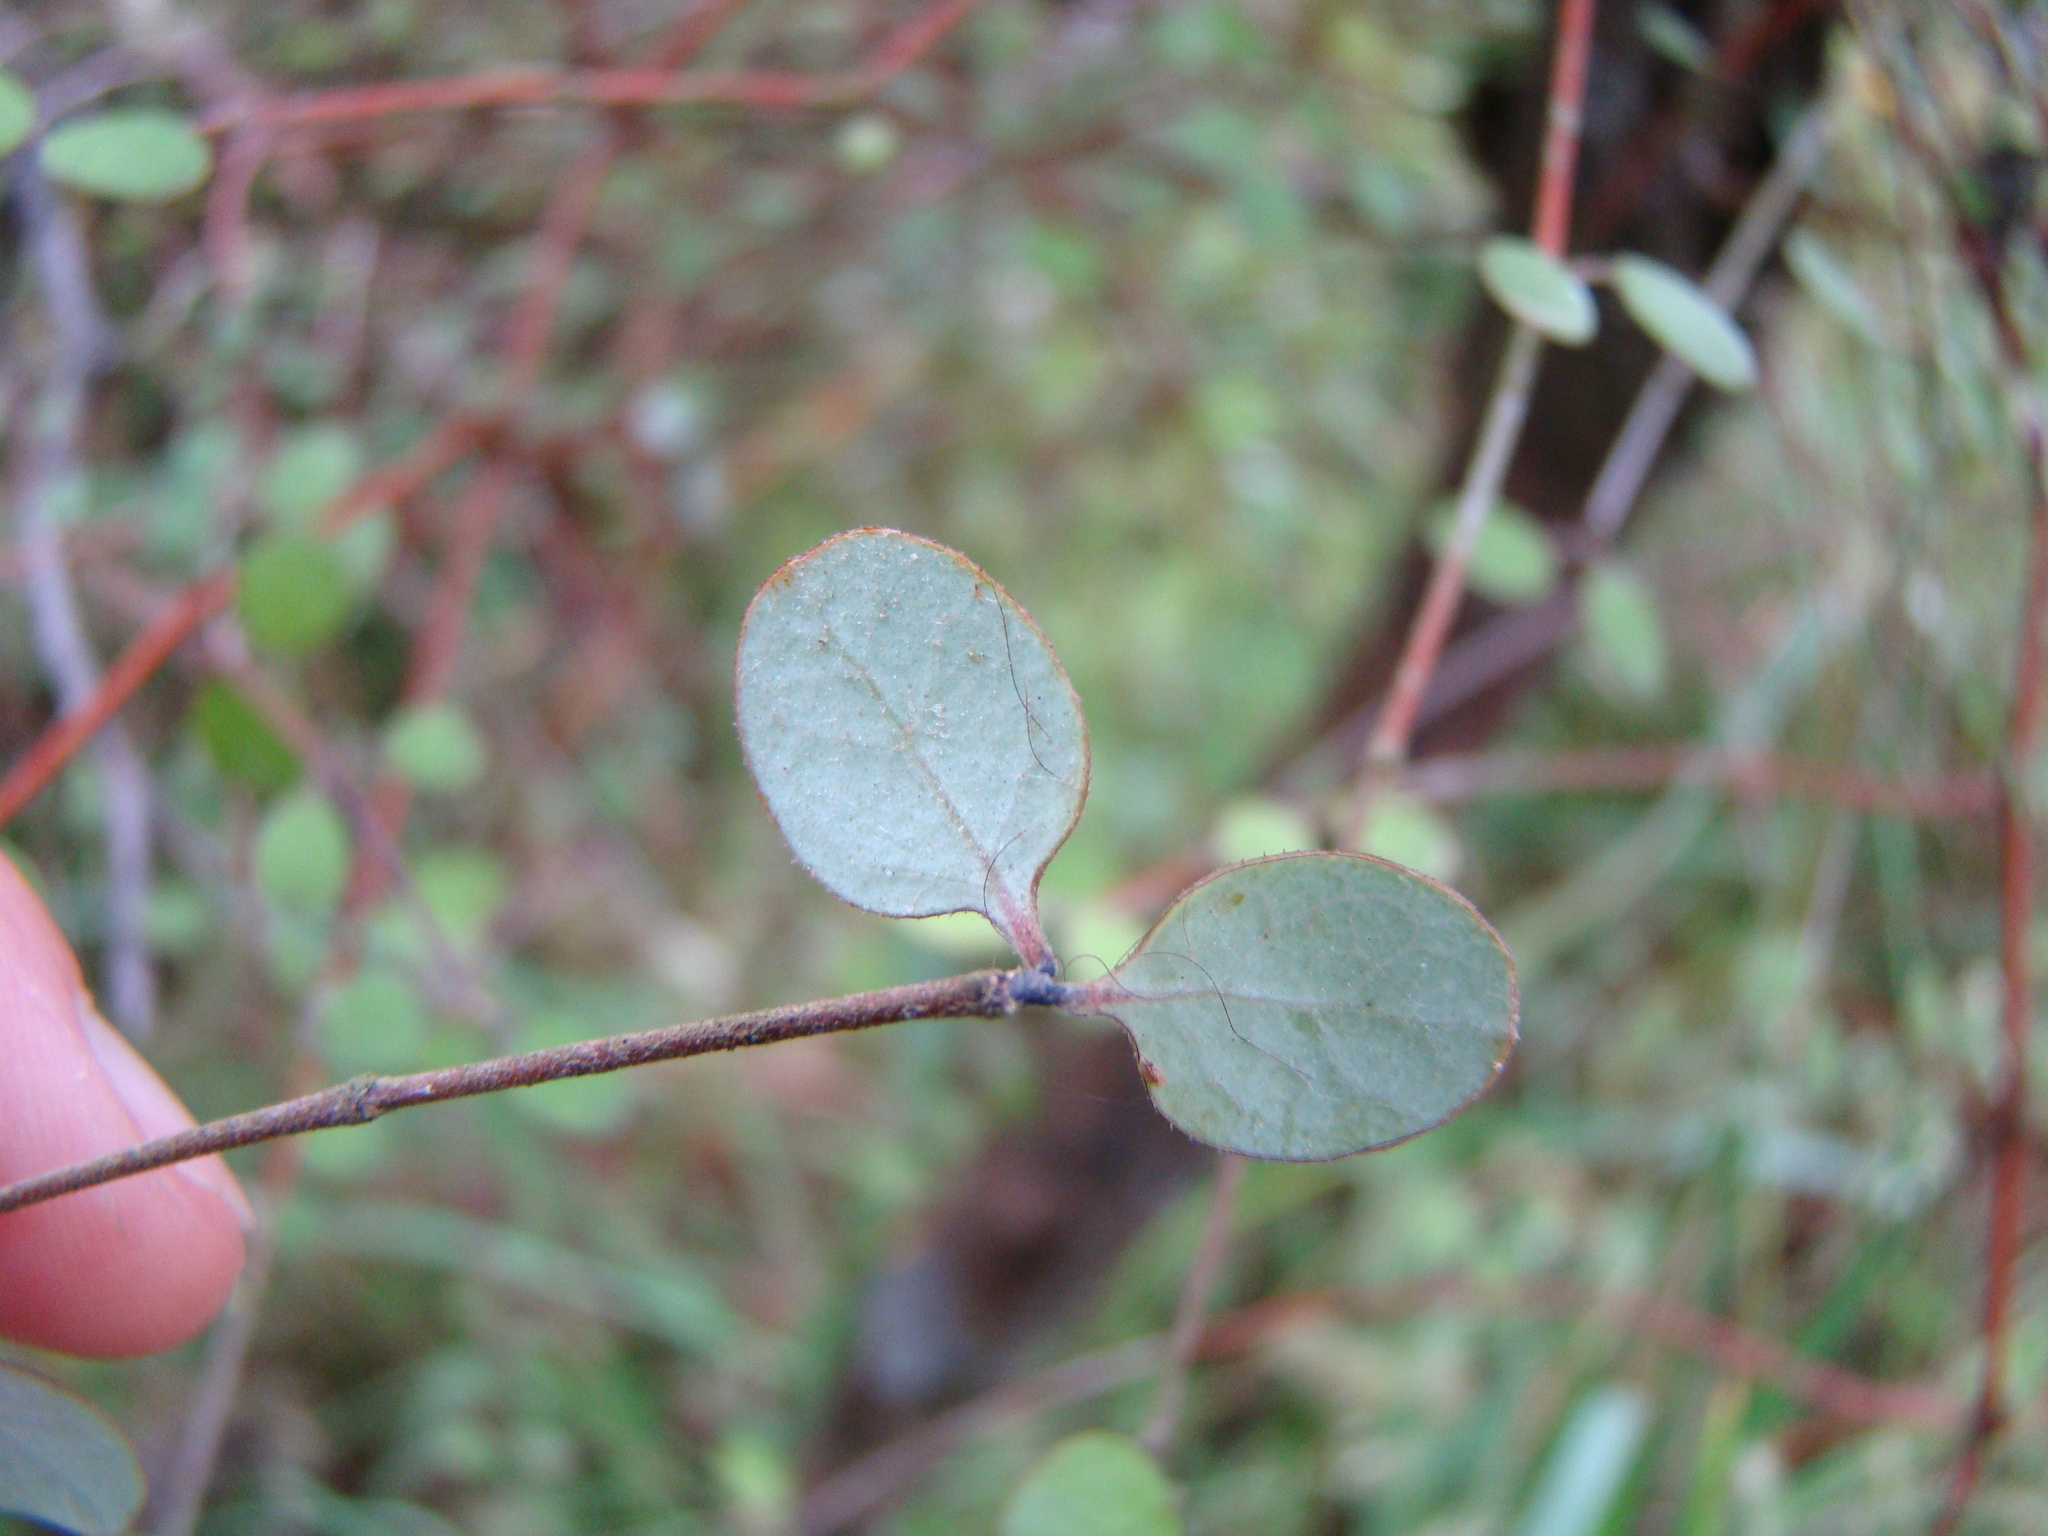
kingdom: Plantae
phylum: Tracheophyta
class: Magnoliopsida
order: Gentianales
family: Rubiaceae
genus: Coprosma
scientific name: Coprosma crassifolia
